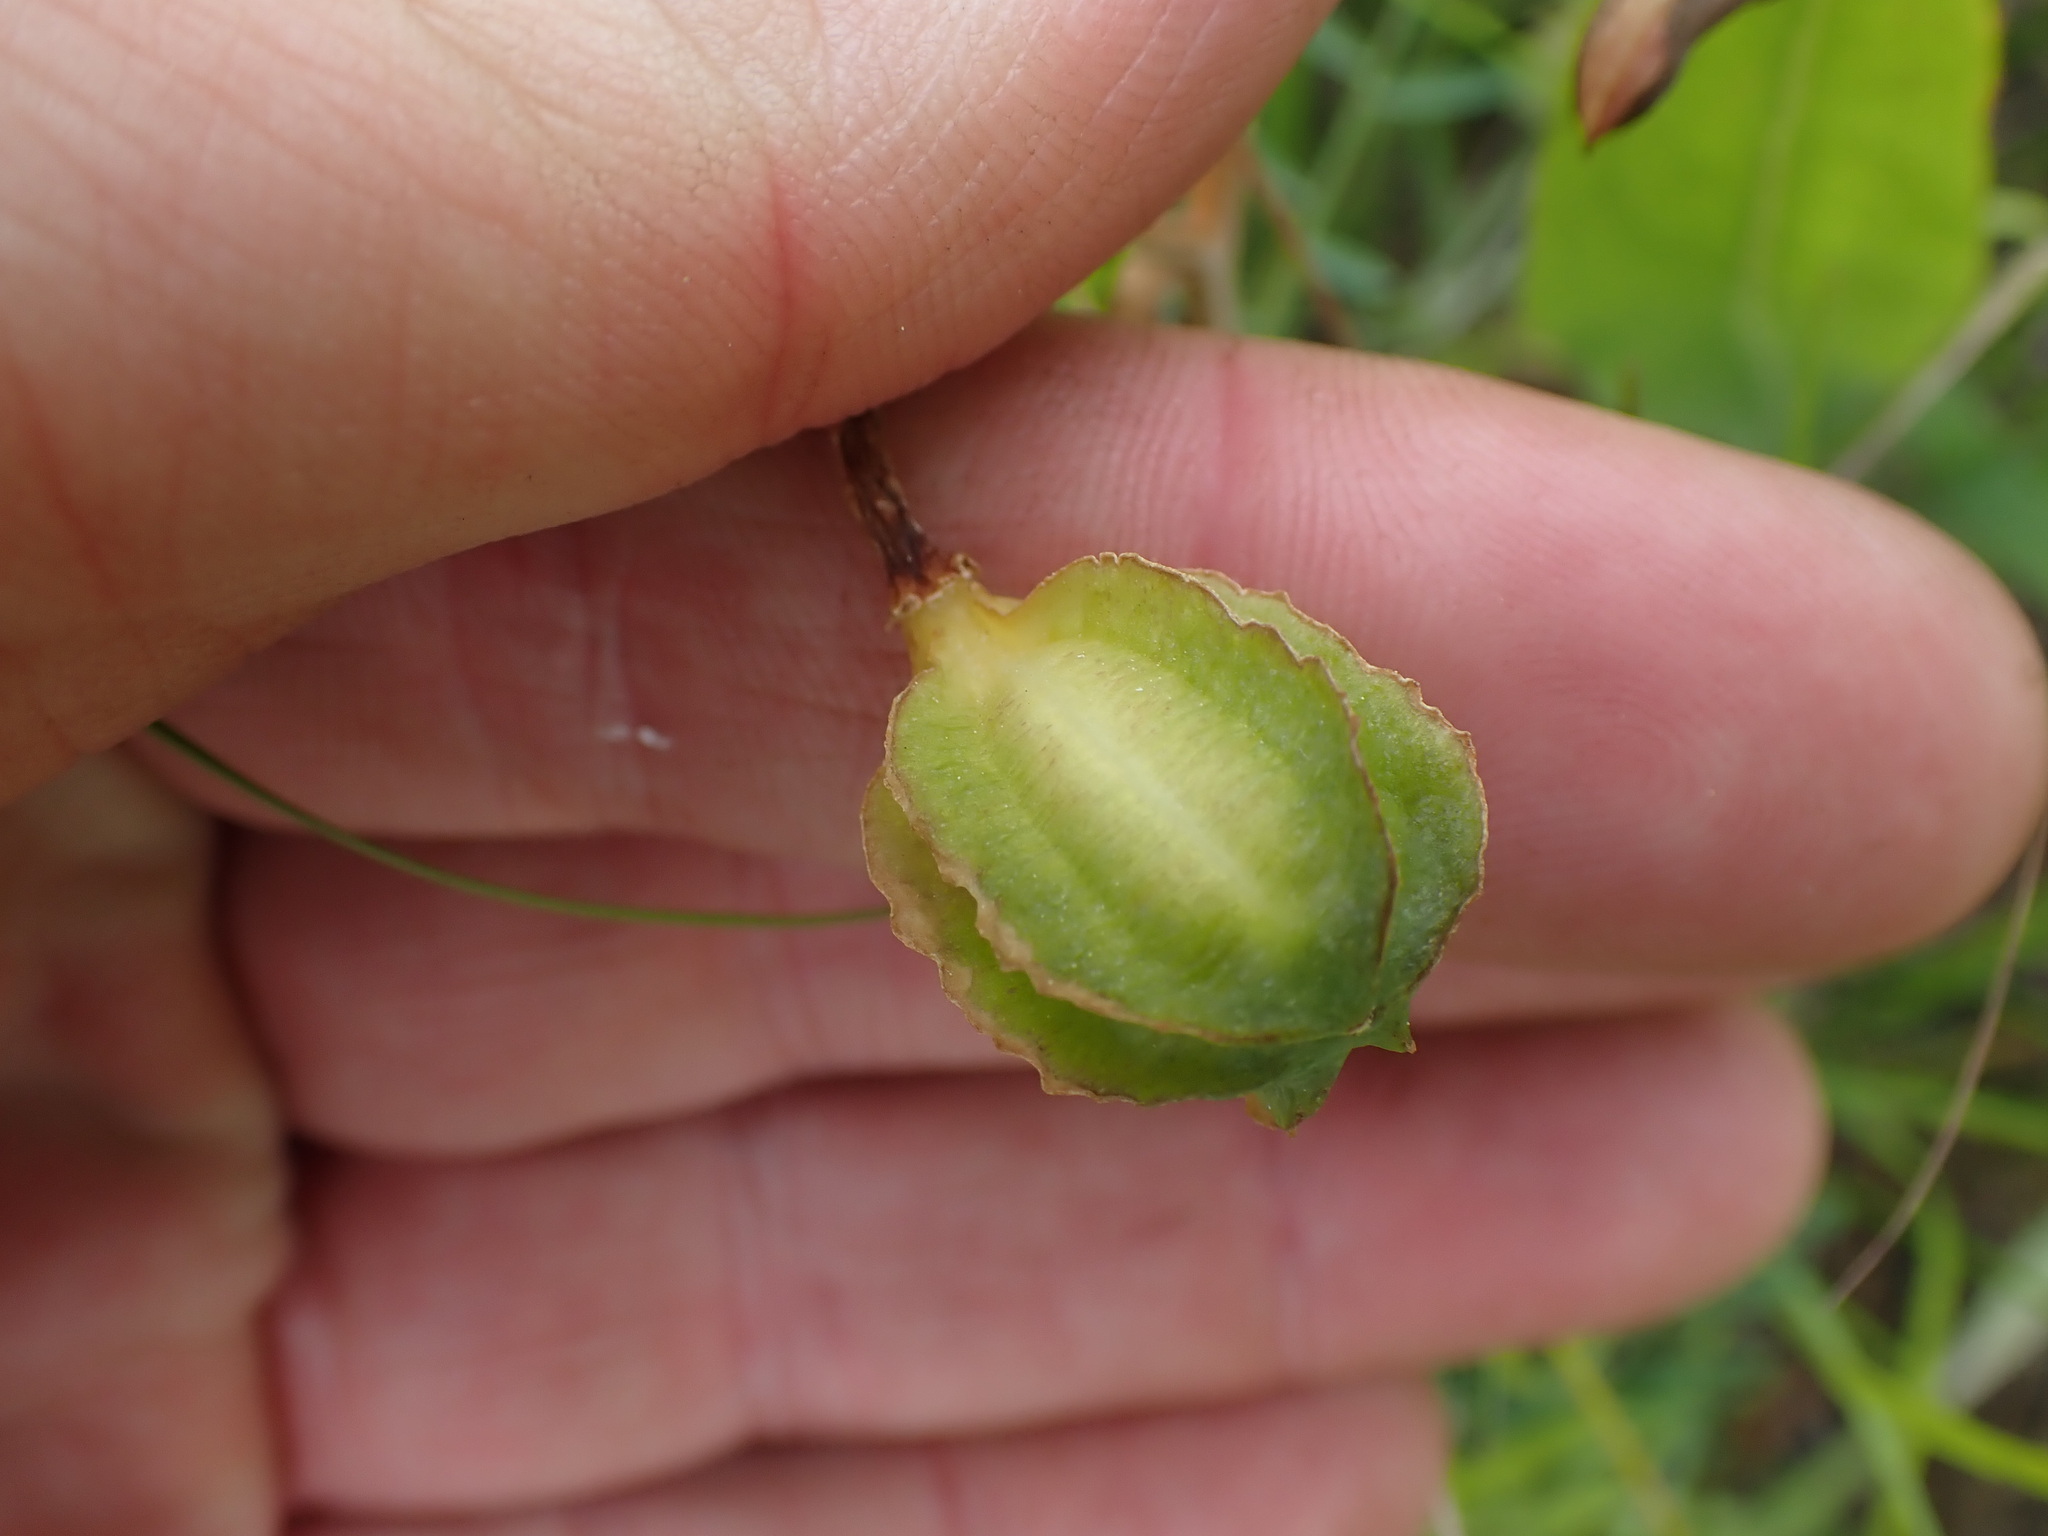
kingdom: Plantae
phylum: Tracheophyta
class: Liliopsida
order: Liliales
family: Liliaceae
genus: Fritillaria
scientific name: Fritillaria affinis
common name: Ojai fritillary
